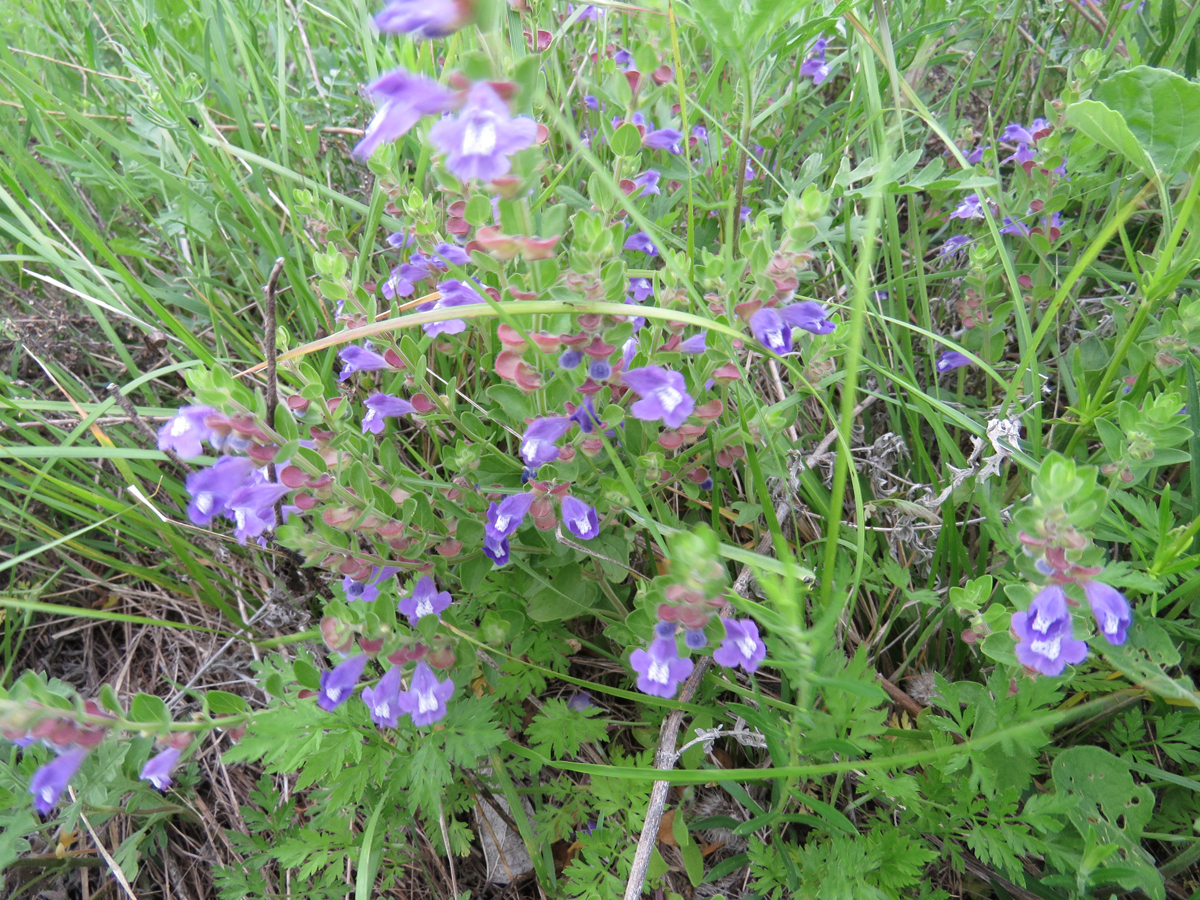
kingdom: Plantae
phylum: Tracheophyta
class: Magnoliopsida
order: Lamiales
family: Lamiaceae
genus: Scutellaria
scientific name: Scutellaria drummondii
